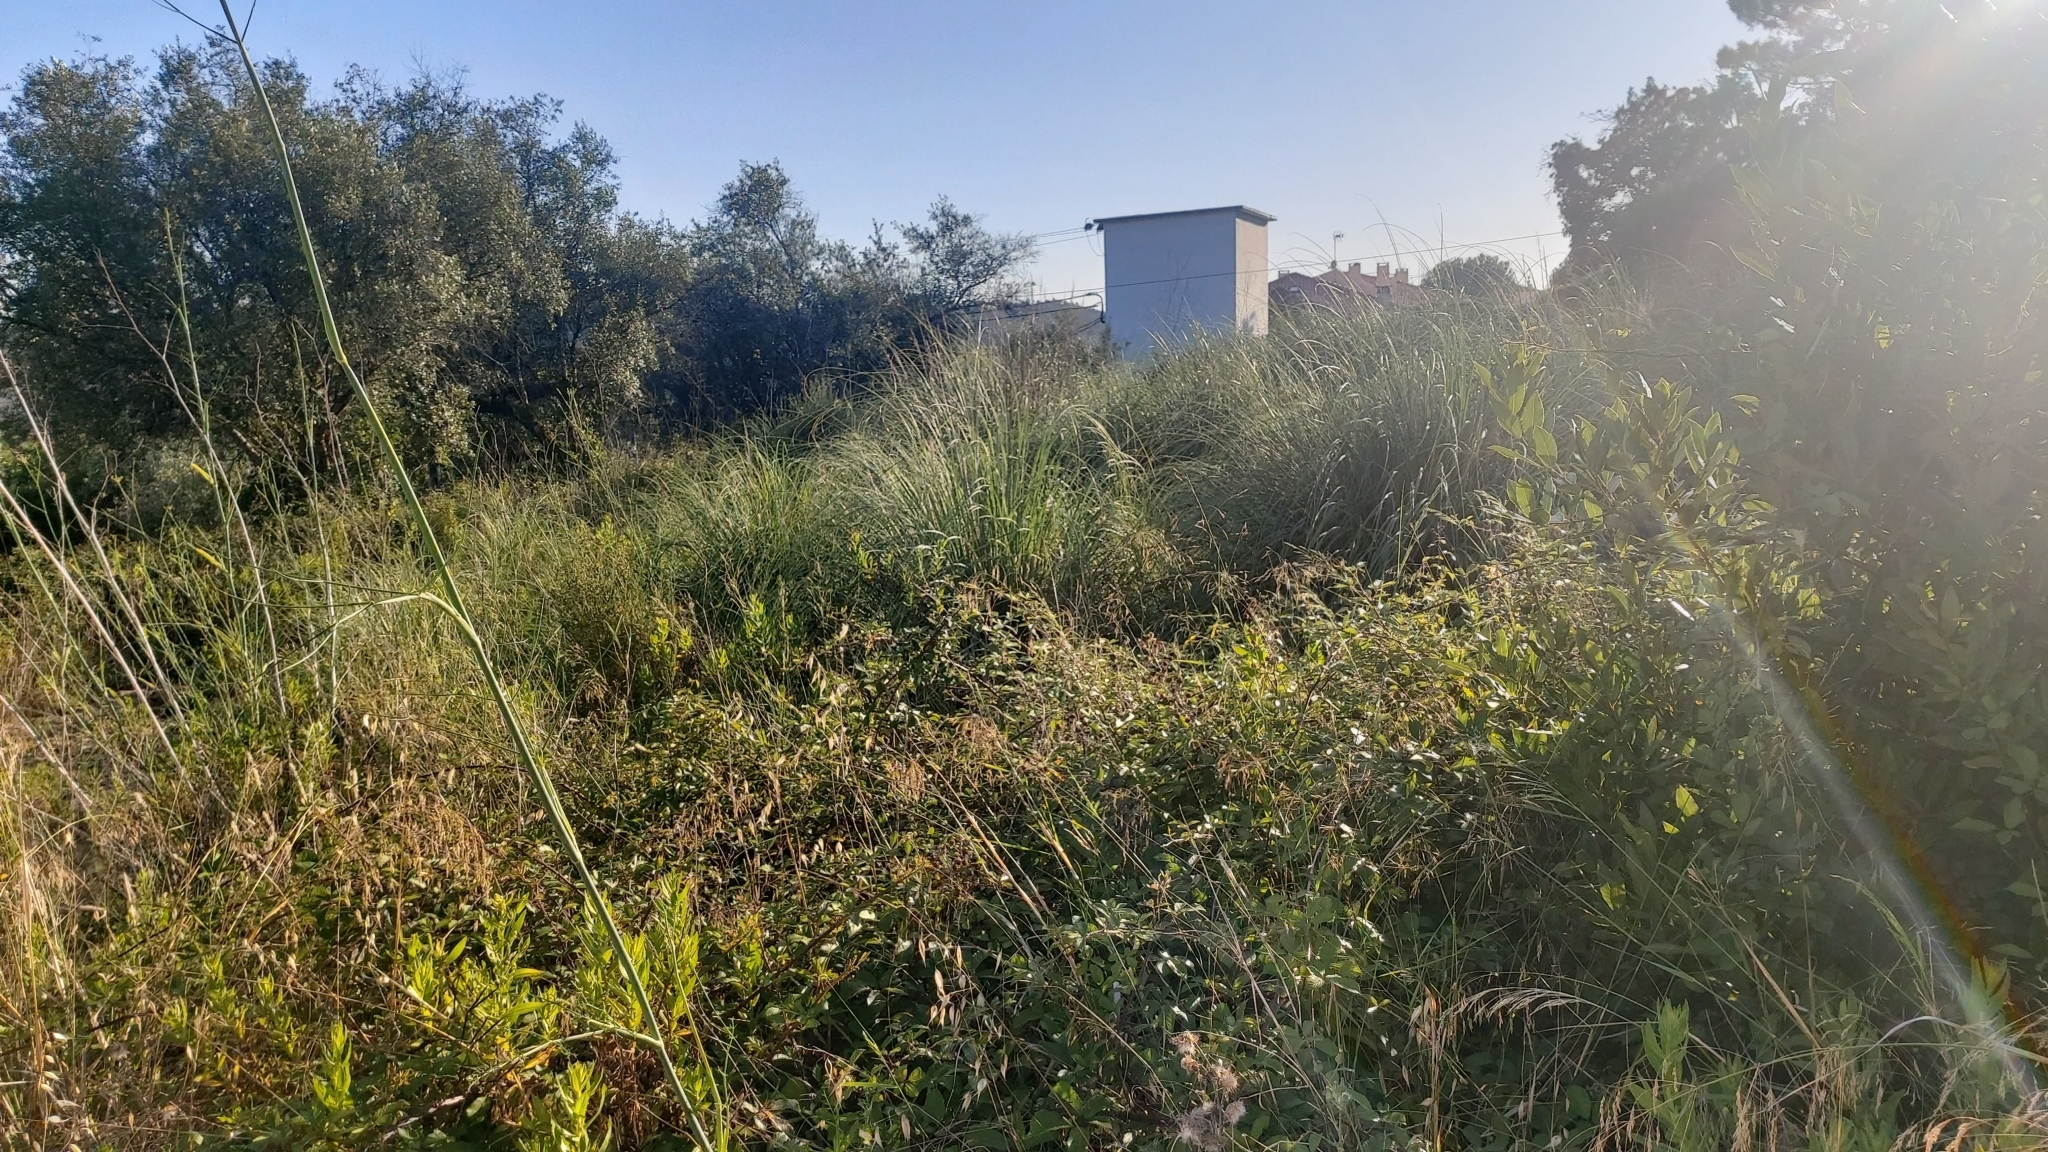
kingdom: Plantae
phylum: Tracheophyta
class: Liliopsida
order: Poales
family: Poaceae
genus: Cortaderia
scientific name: Cortaderia selloana
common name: Uruguayan pampas grass
